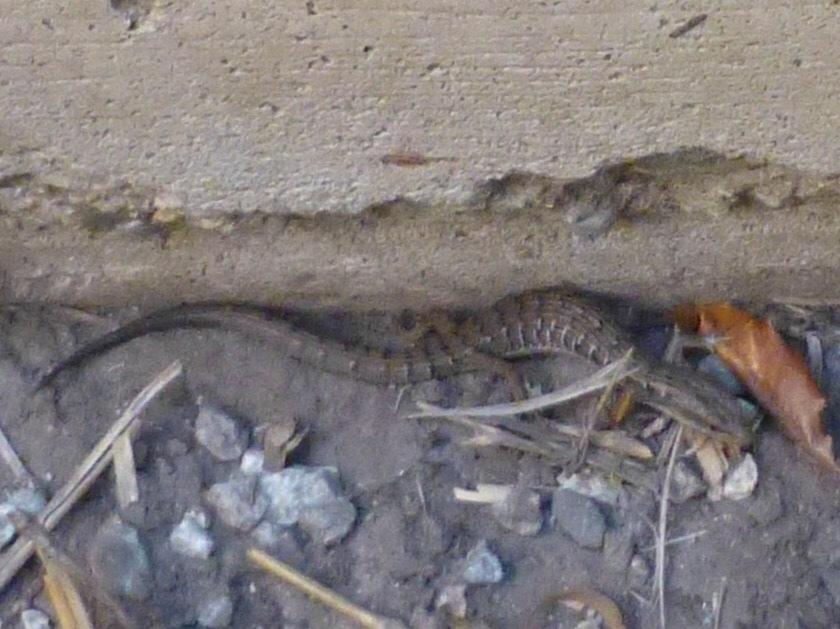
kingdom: Animalia
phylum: Chordata
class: Squamata
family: Anguidae
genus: Elgaria
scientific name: Elgaria multicarinata
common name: Southern alligator lizard
